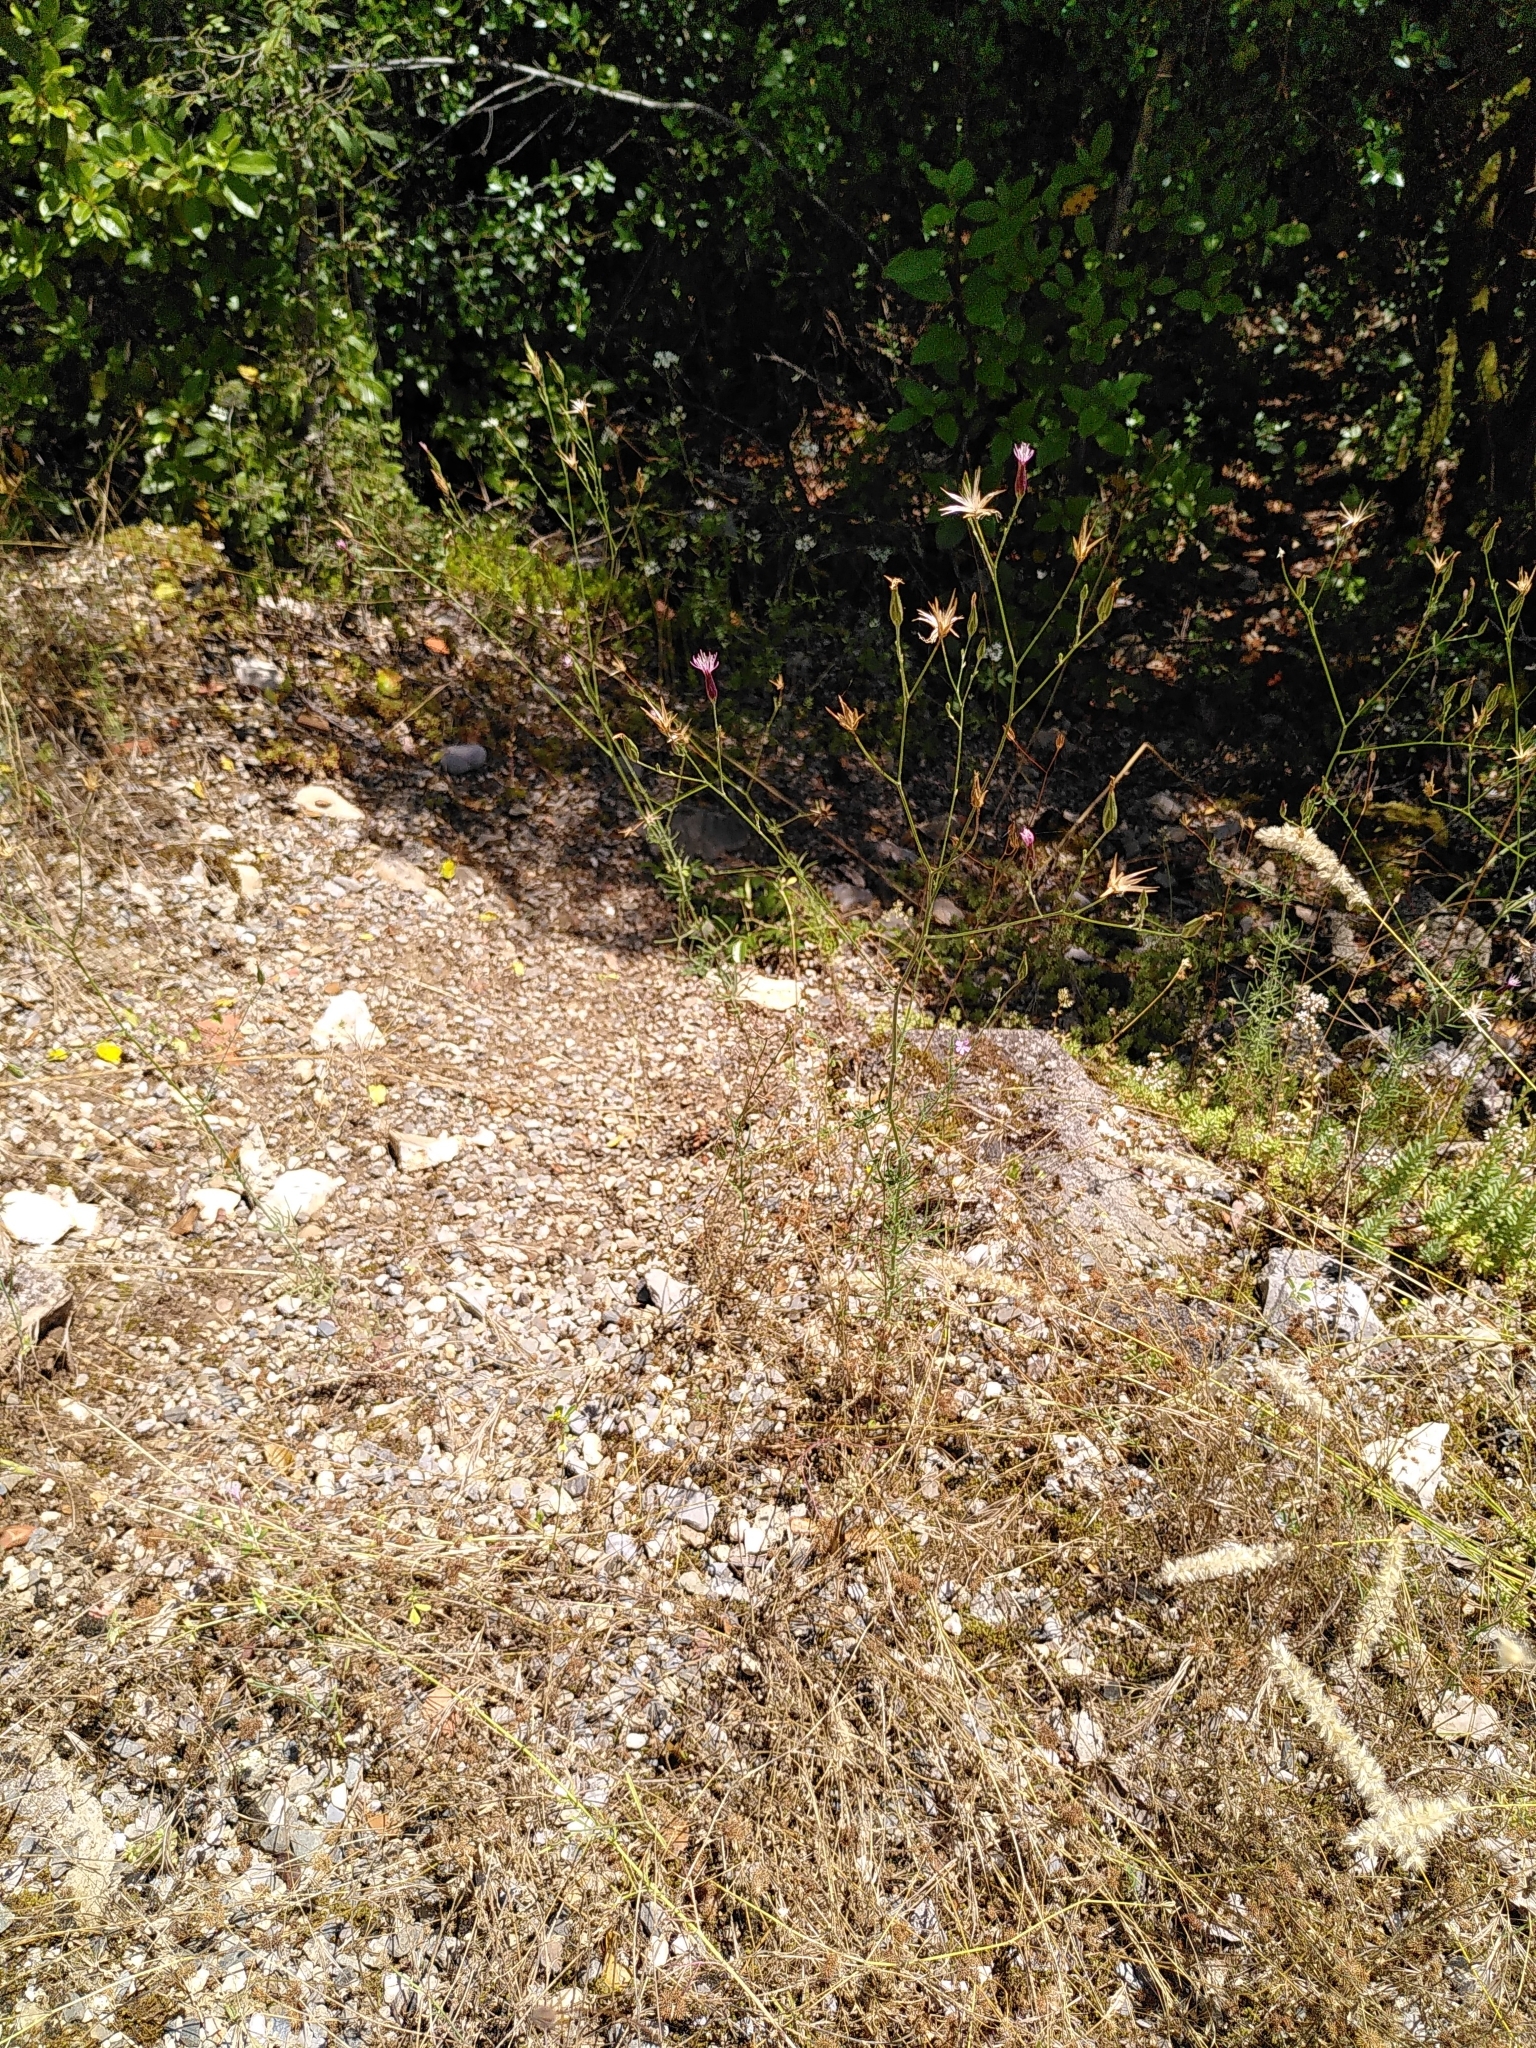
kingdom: Plantae
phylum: Tracheophyta
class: Magnoliopsida
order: Asterales
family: Asteraceae
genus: Crupina
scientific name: Crupina vulgaris
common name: Common crupina
